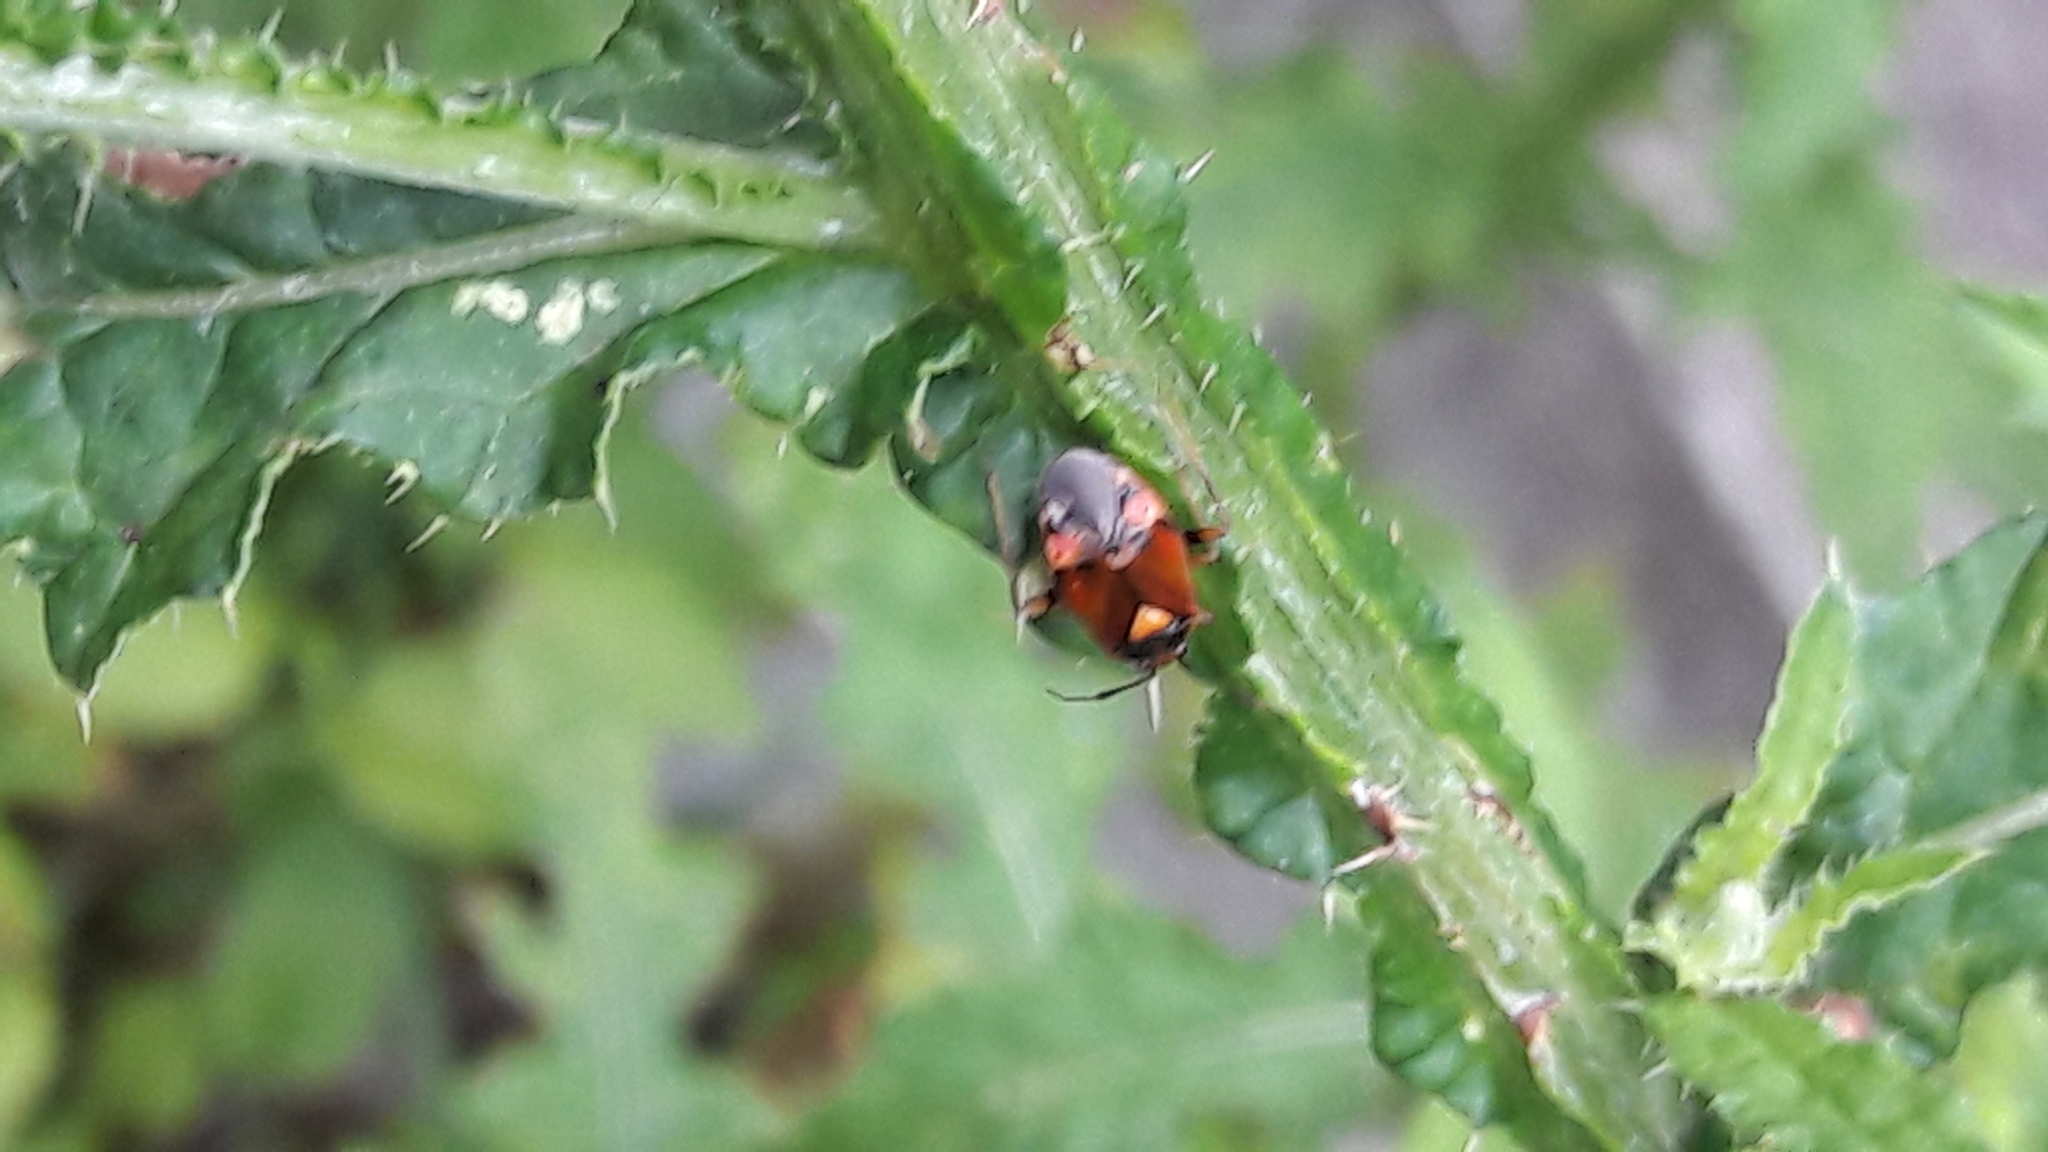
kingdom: Animalia
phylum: Arthropoda
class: Insecta
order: Hemiptera
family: Miridae
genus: Deraeocoris
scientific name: Deraeocoris ruber
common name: Plant bug
